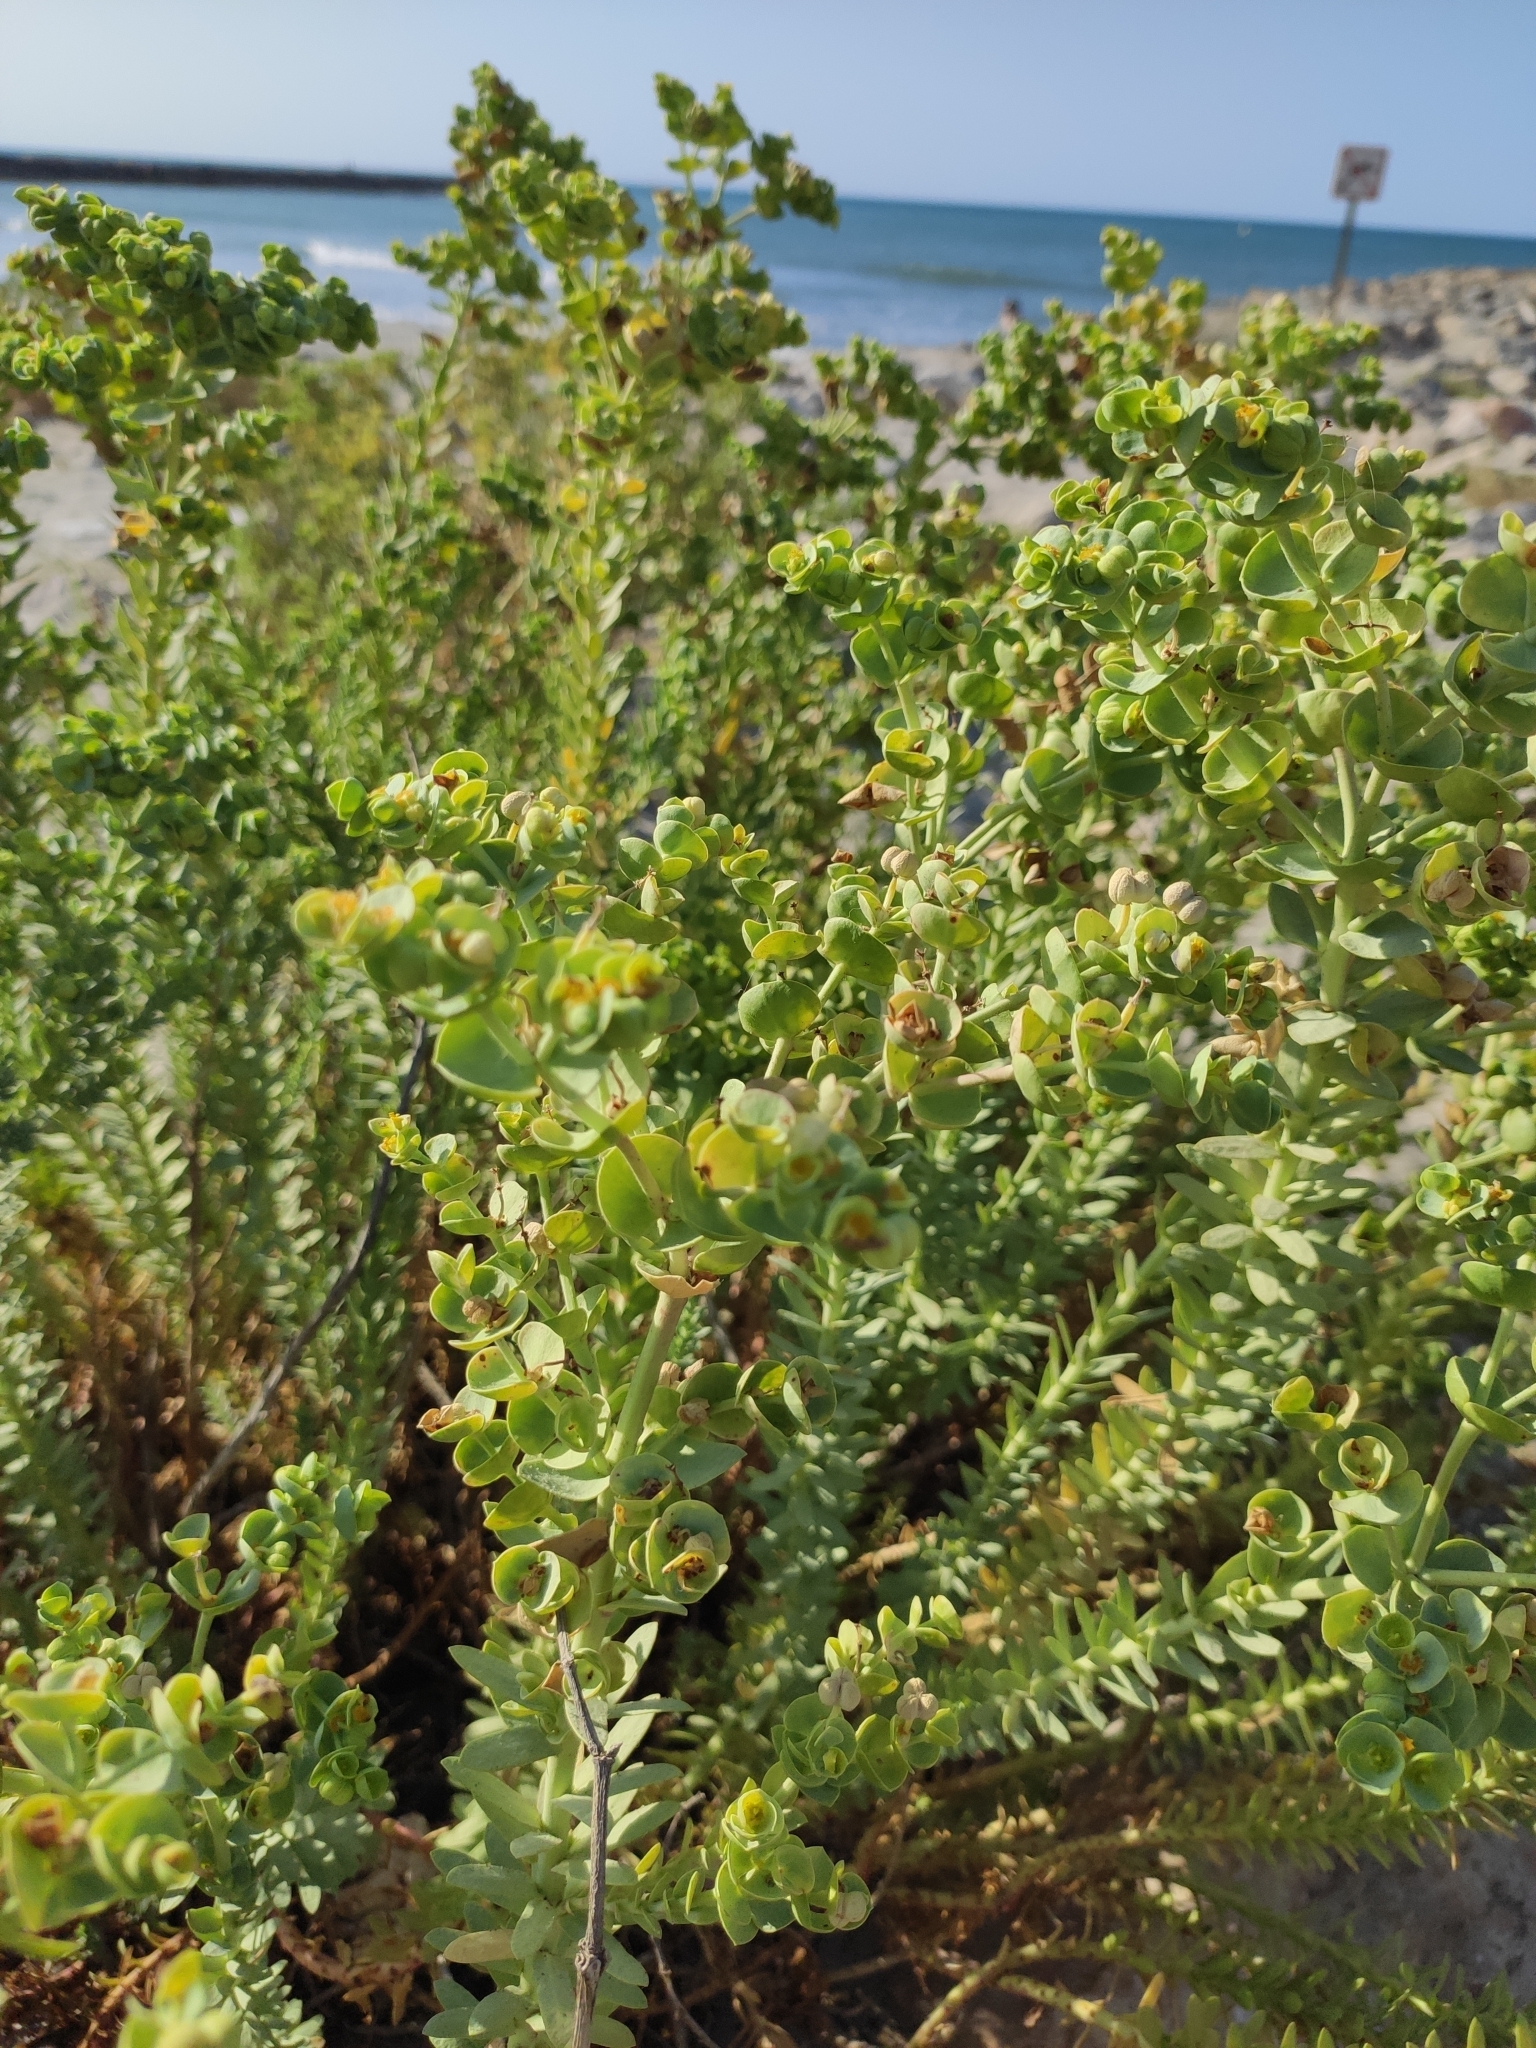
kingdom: Plantae
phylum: Tracheophyta
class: Magnoliopsida
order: Malpighiales
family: Euphorbiaceae
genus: Euphorbia
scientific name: Euphorbia paralias
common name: Sea spurge
